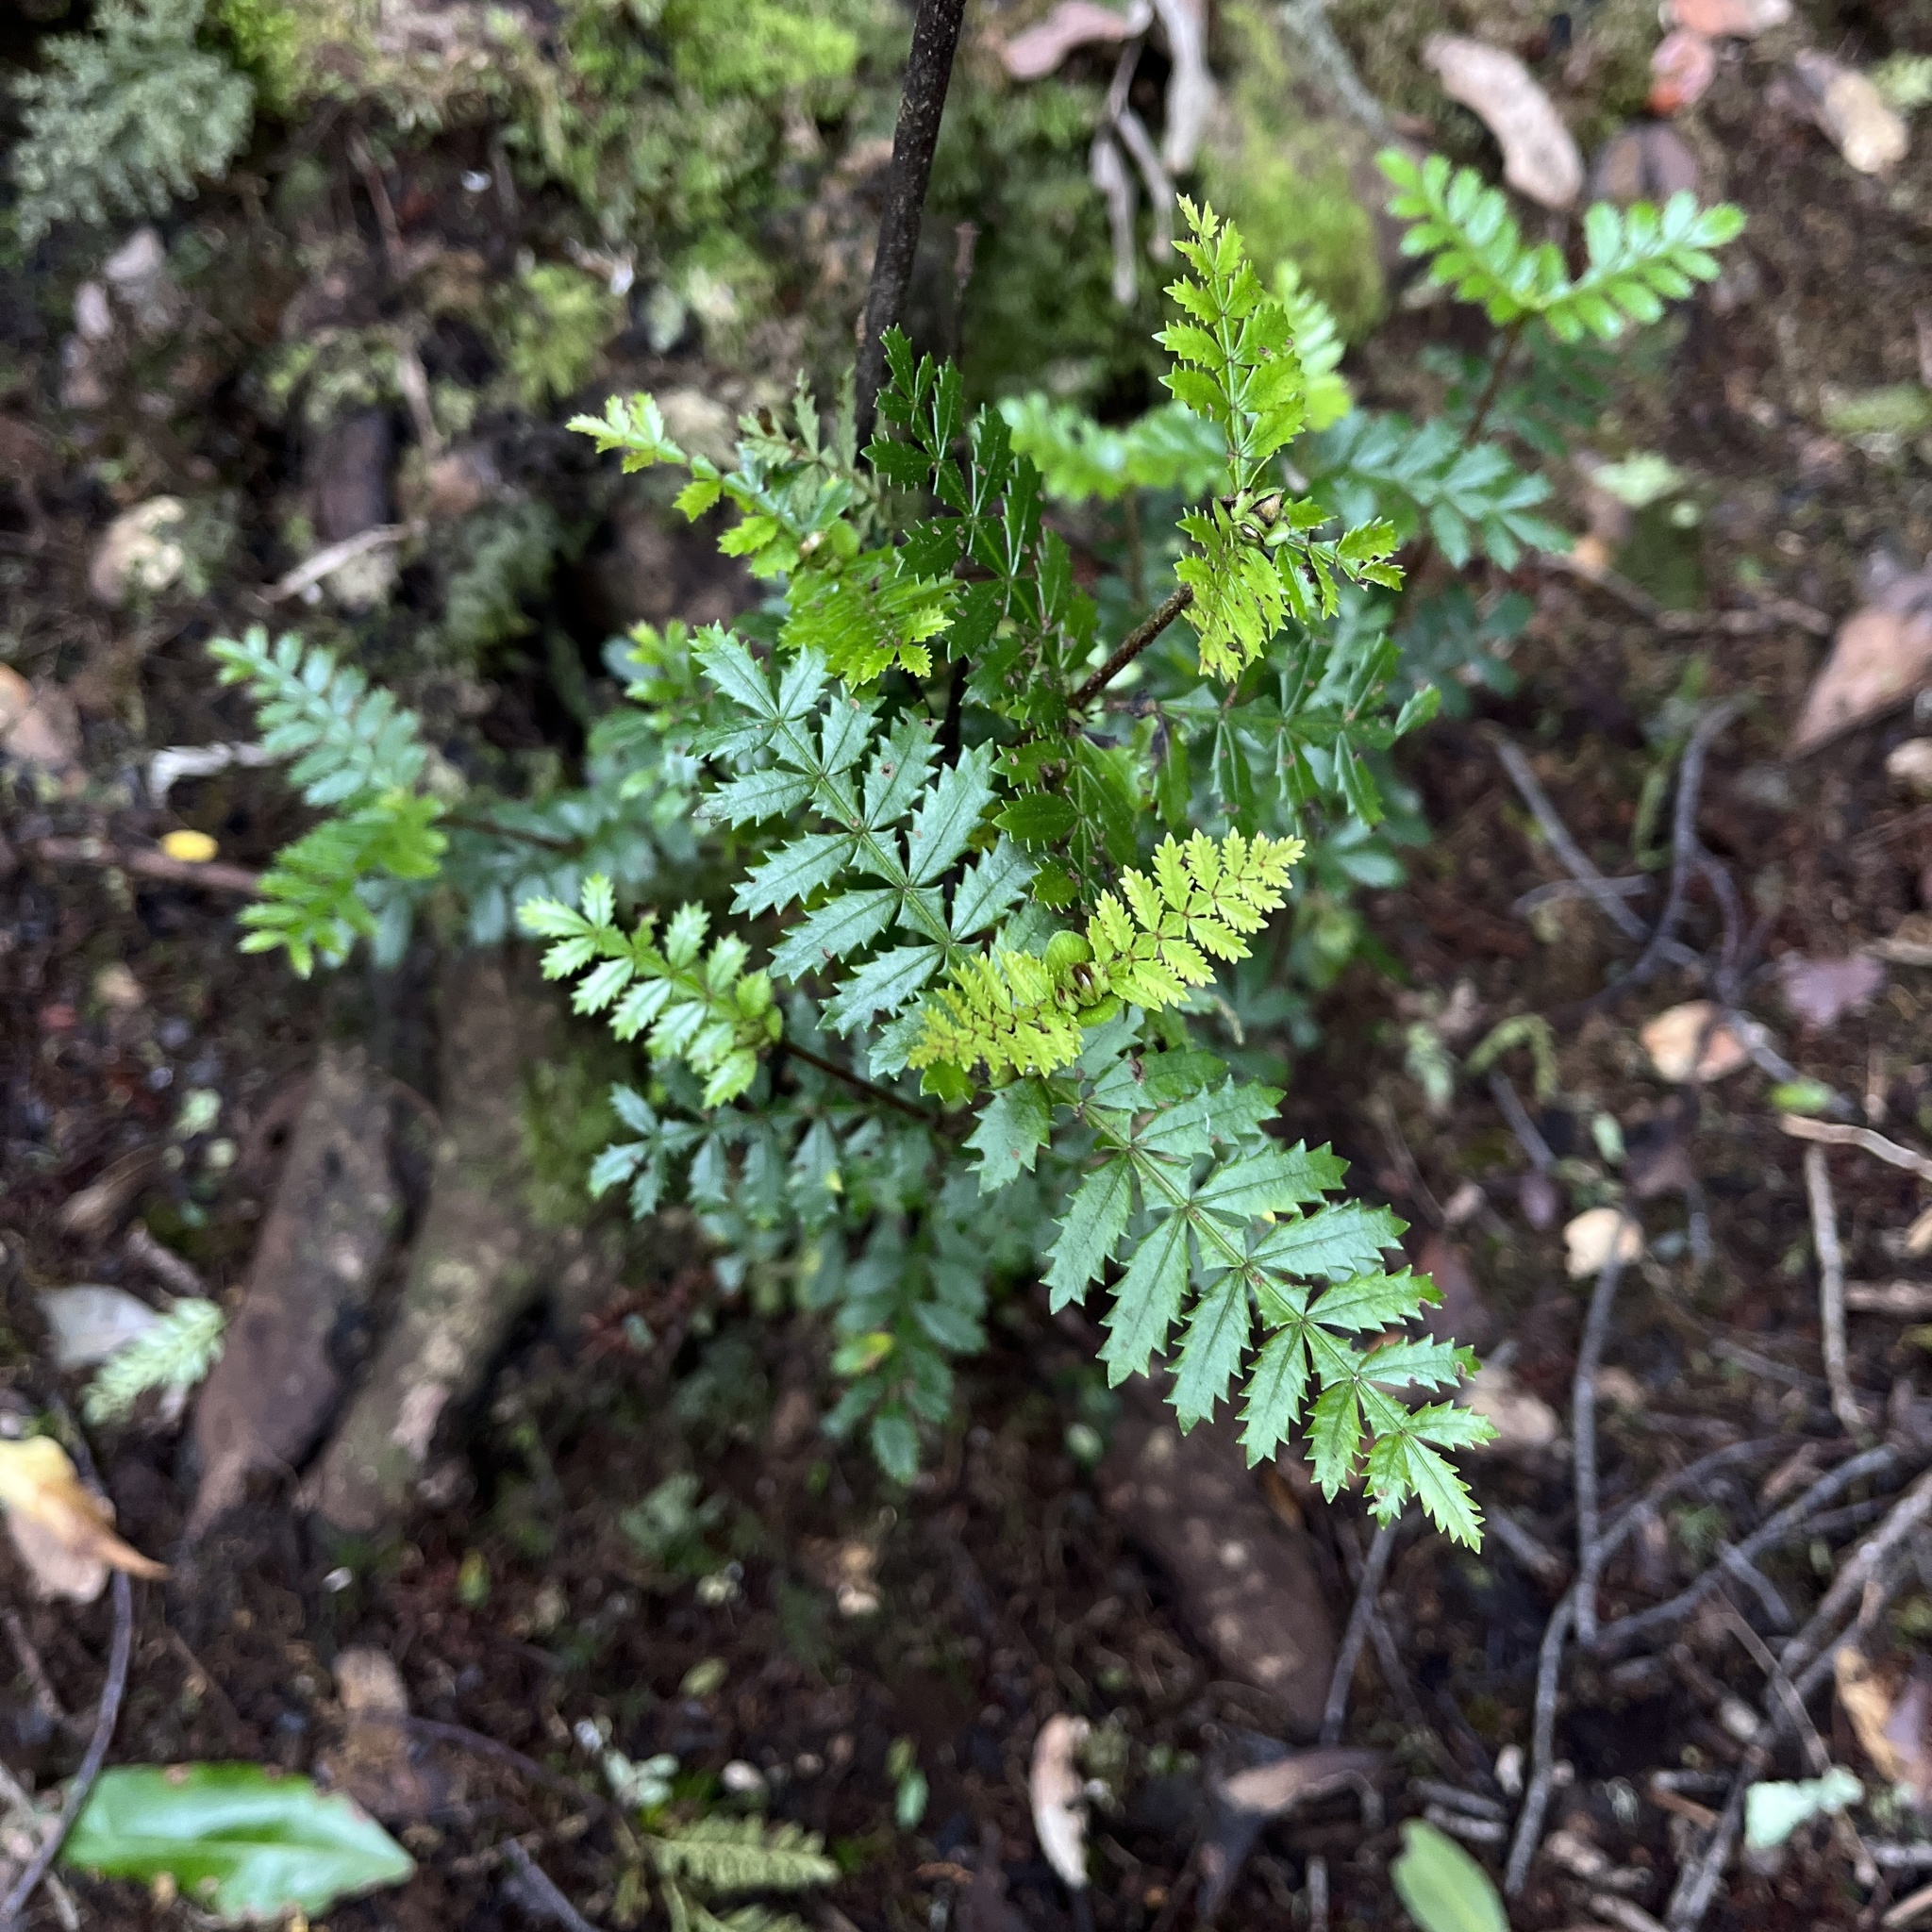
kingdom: Plantae
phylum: Tracheophyta
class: Magnoliopsida
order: Oxalidales
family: Cunoniaceae
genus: Weinmannia
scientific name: Weinmannia trichosperma
